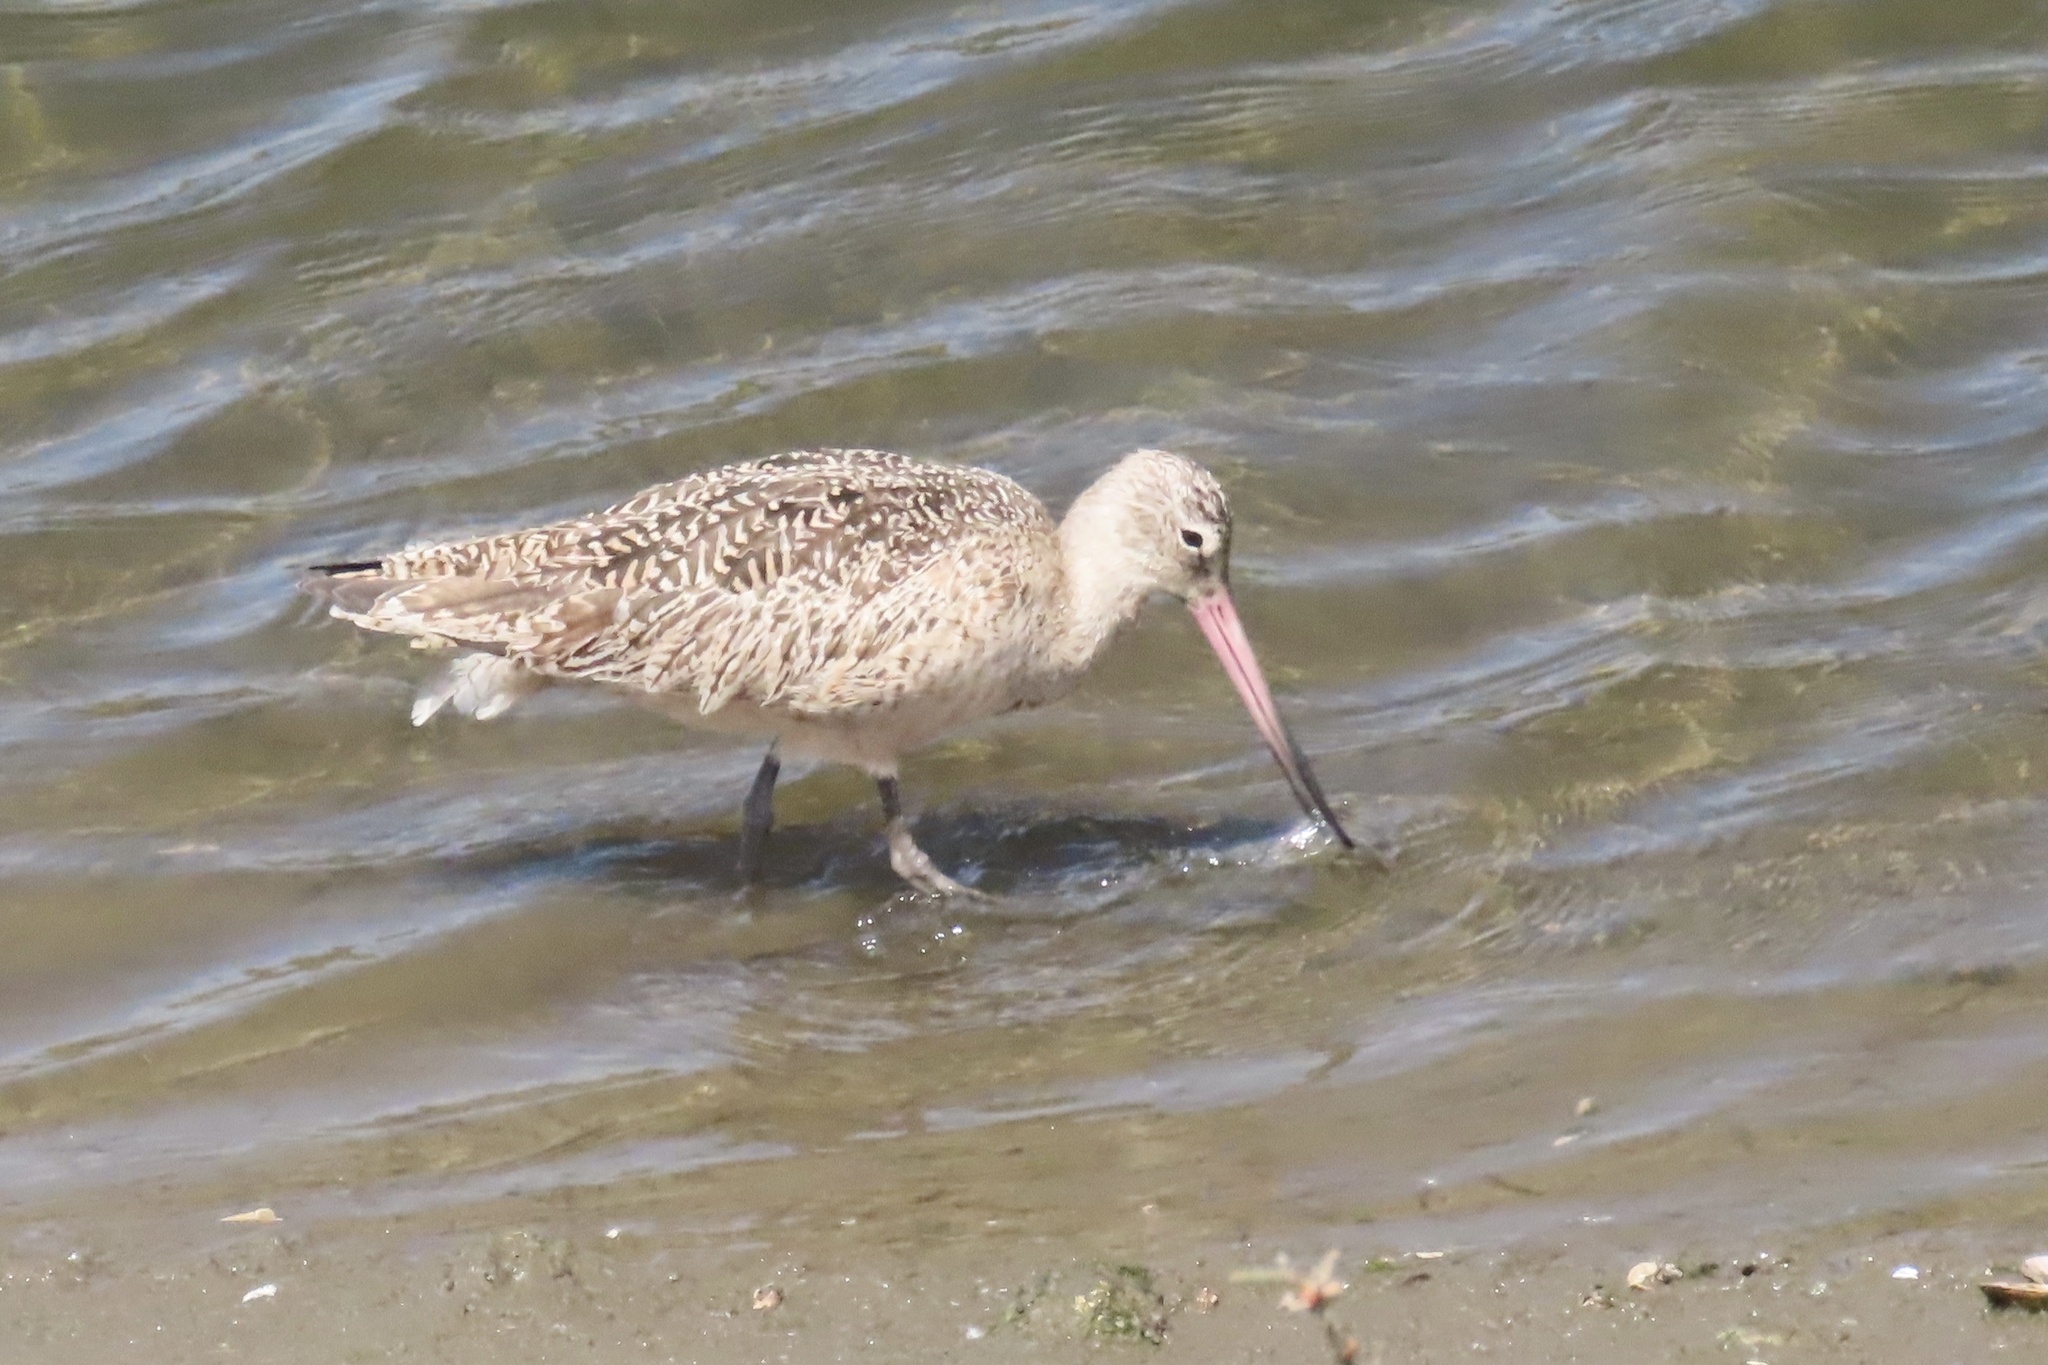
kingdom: Animalia
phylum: Chordata
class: Aves
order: Charadriiformes
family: Scolopacidae
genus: Limosa
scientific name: Limosa fedoa
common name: Marbled godwit
